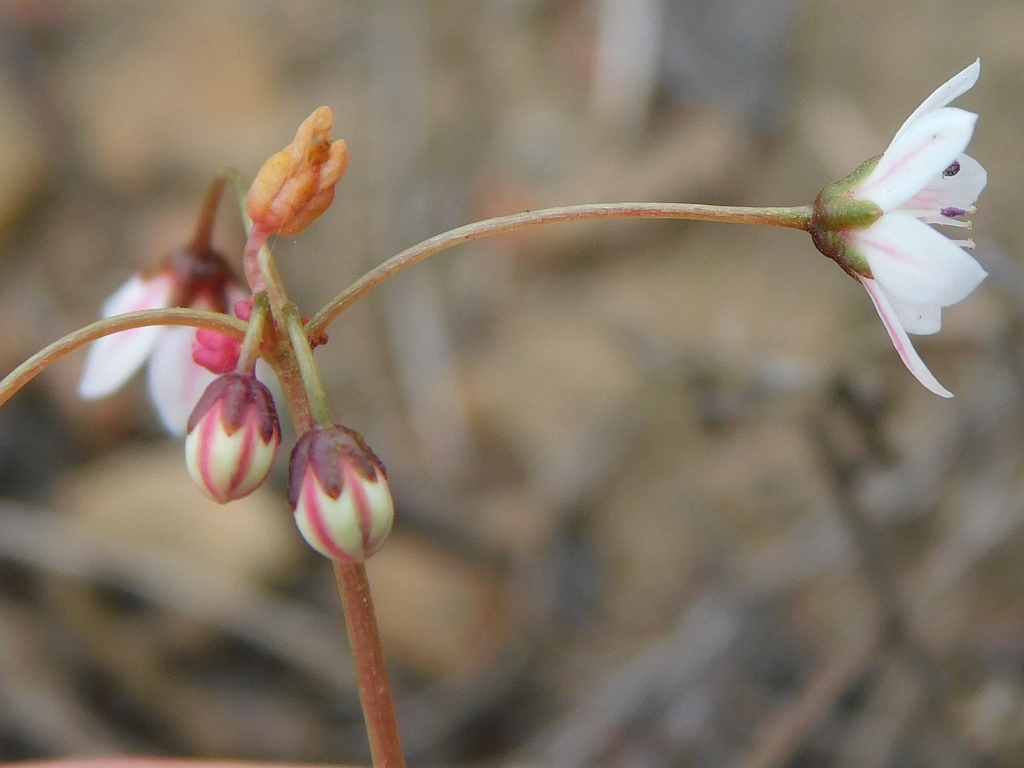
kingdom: Plantae
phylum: Tracheophyta
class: Magnoliopsida
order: Saxifragales
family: Crassulaceae
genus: Crassula
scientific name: Crassula capensis
